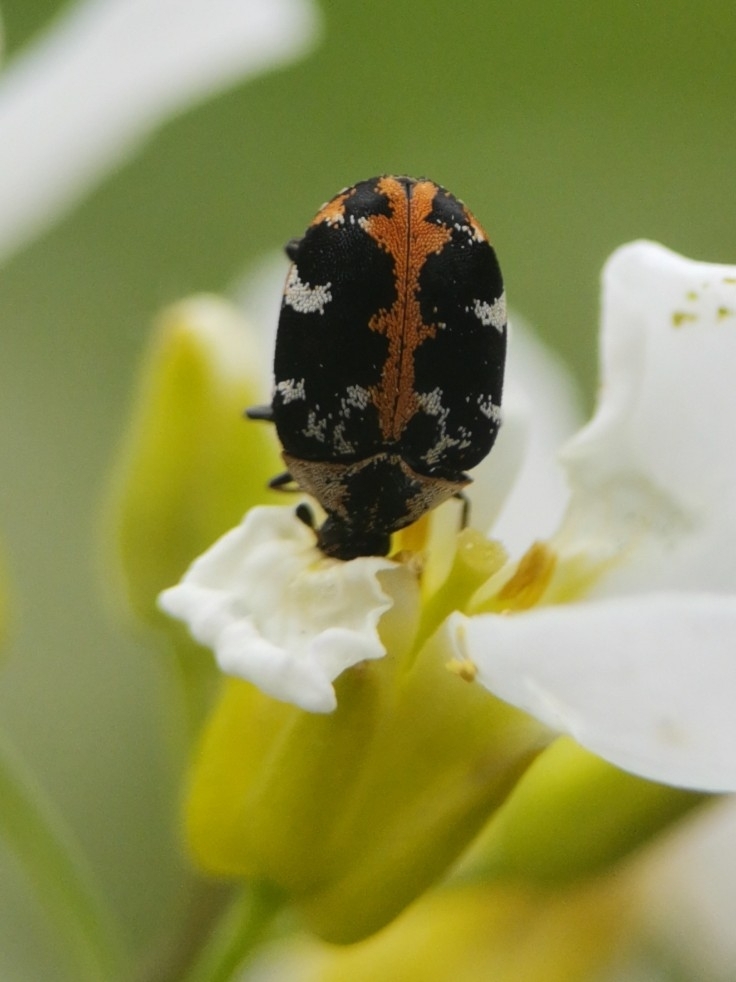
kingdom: Animalia
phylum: Arthropoda
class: Insecta
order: Coleoptera
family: Dermestidae
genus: Anthrenus
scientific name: Anthrenus scrophulariae
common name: Buffalo carpet beetle
